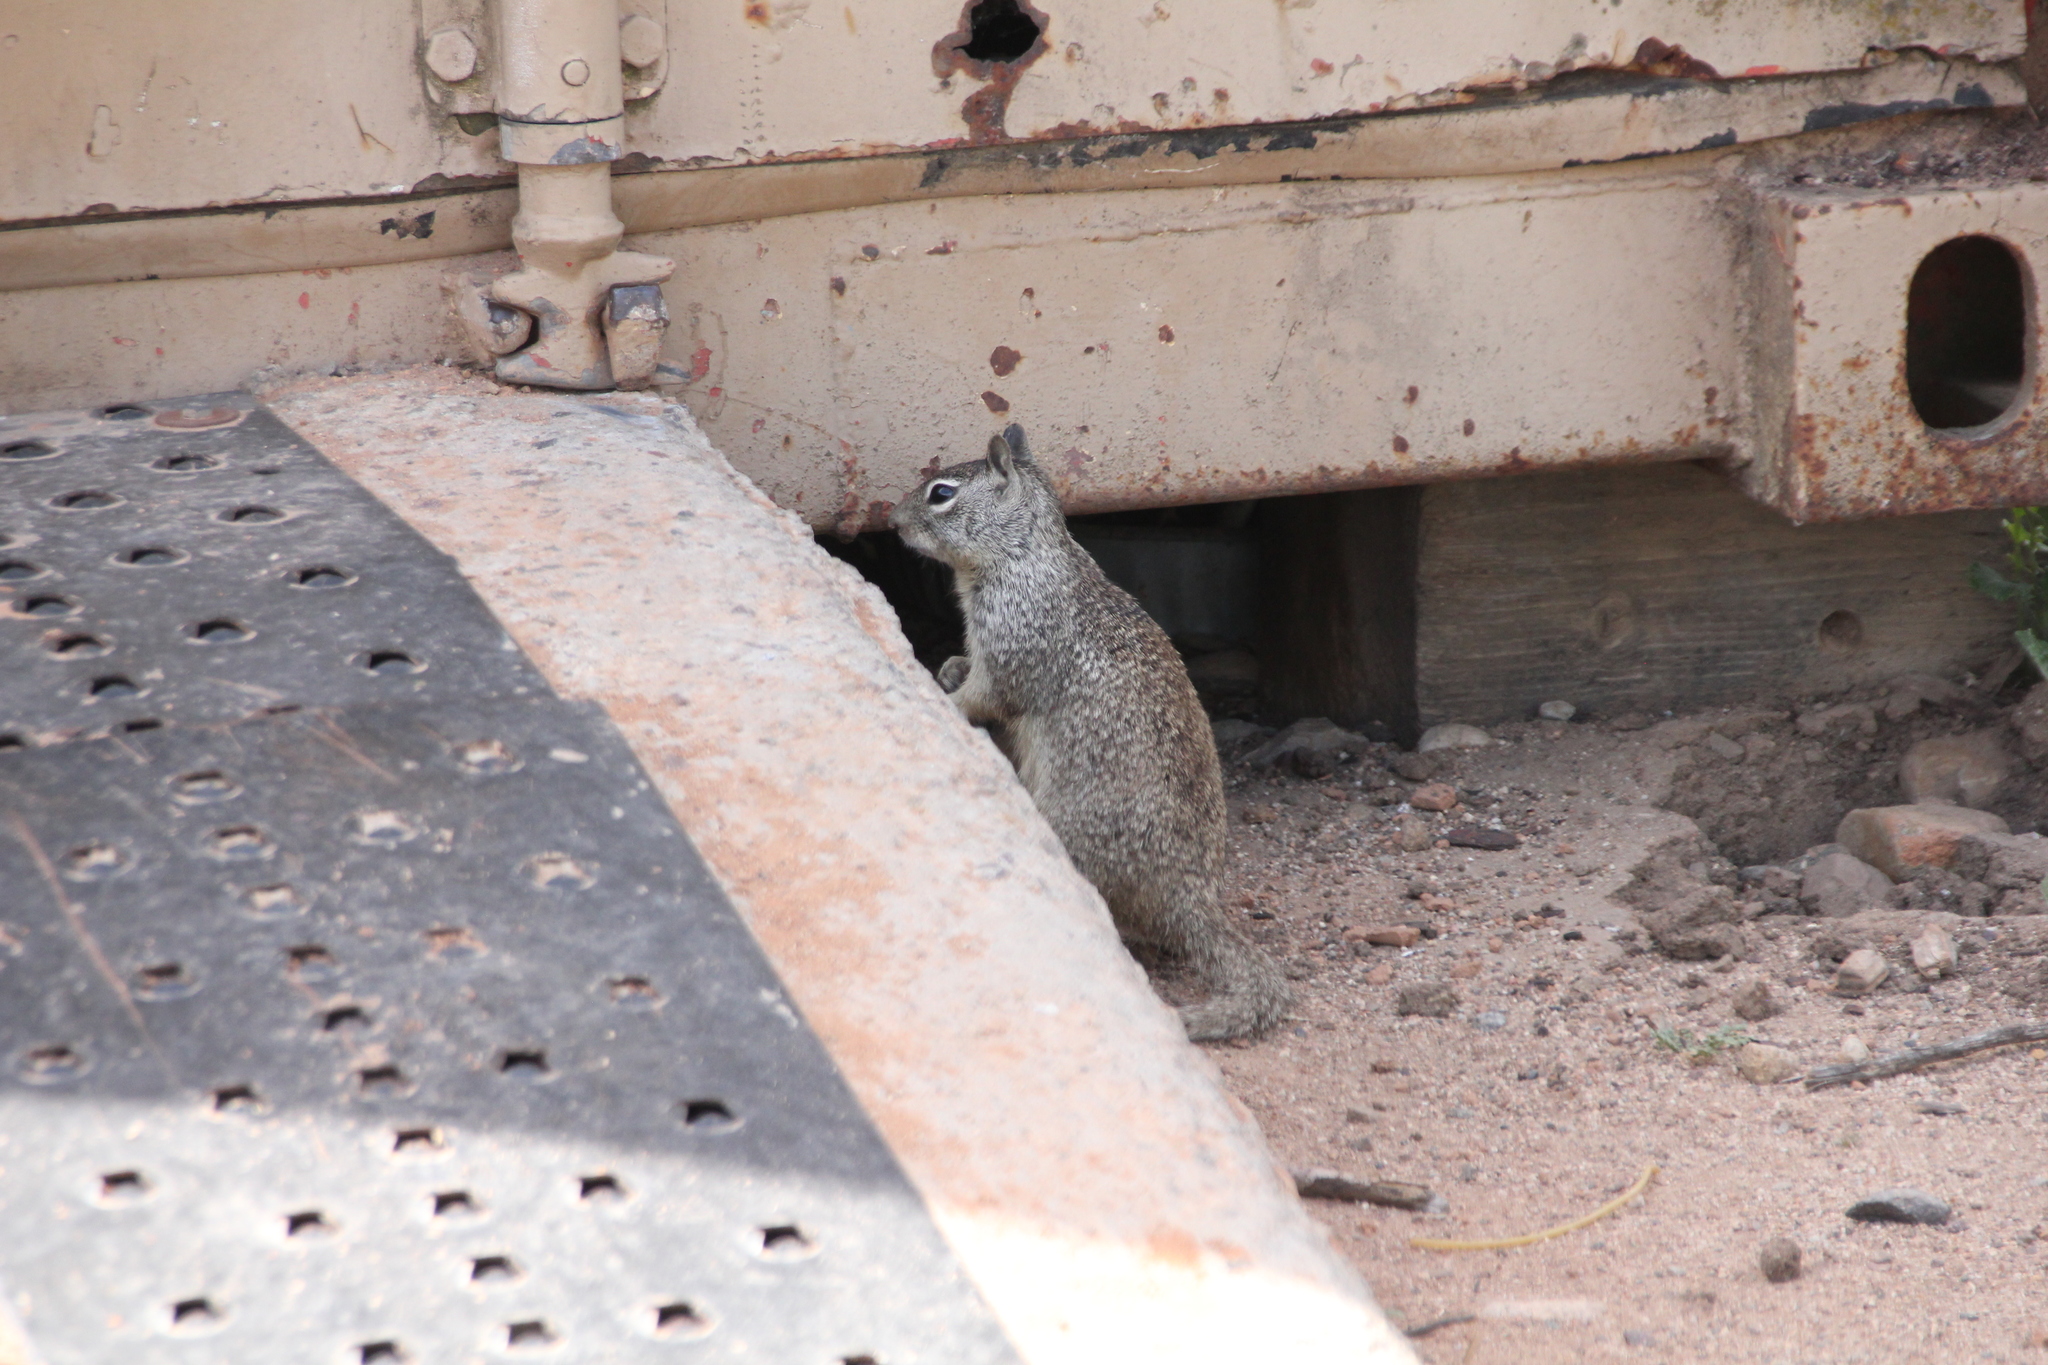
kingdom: Animalia
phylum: Chordata
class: Mammalia
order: Rodentia
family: Sciuridae
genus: Otospermophilus
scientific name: Otospermophilus beecheyi
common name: California ground squirrel
